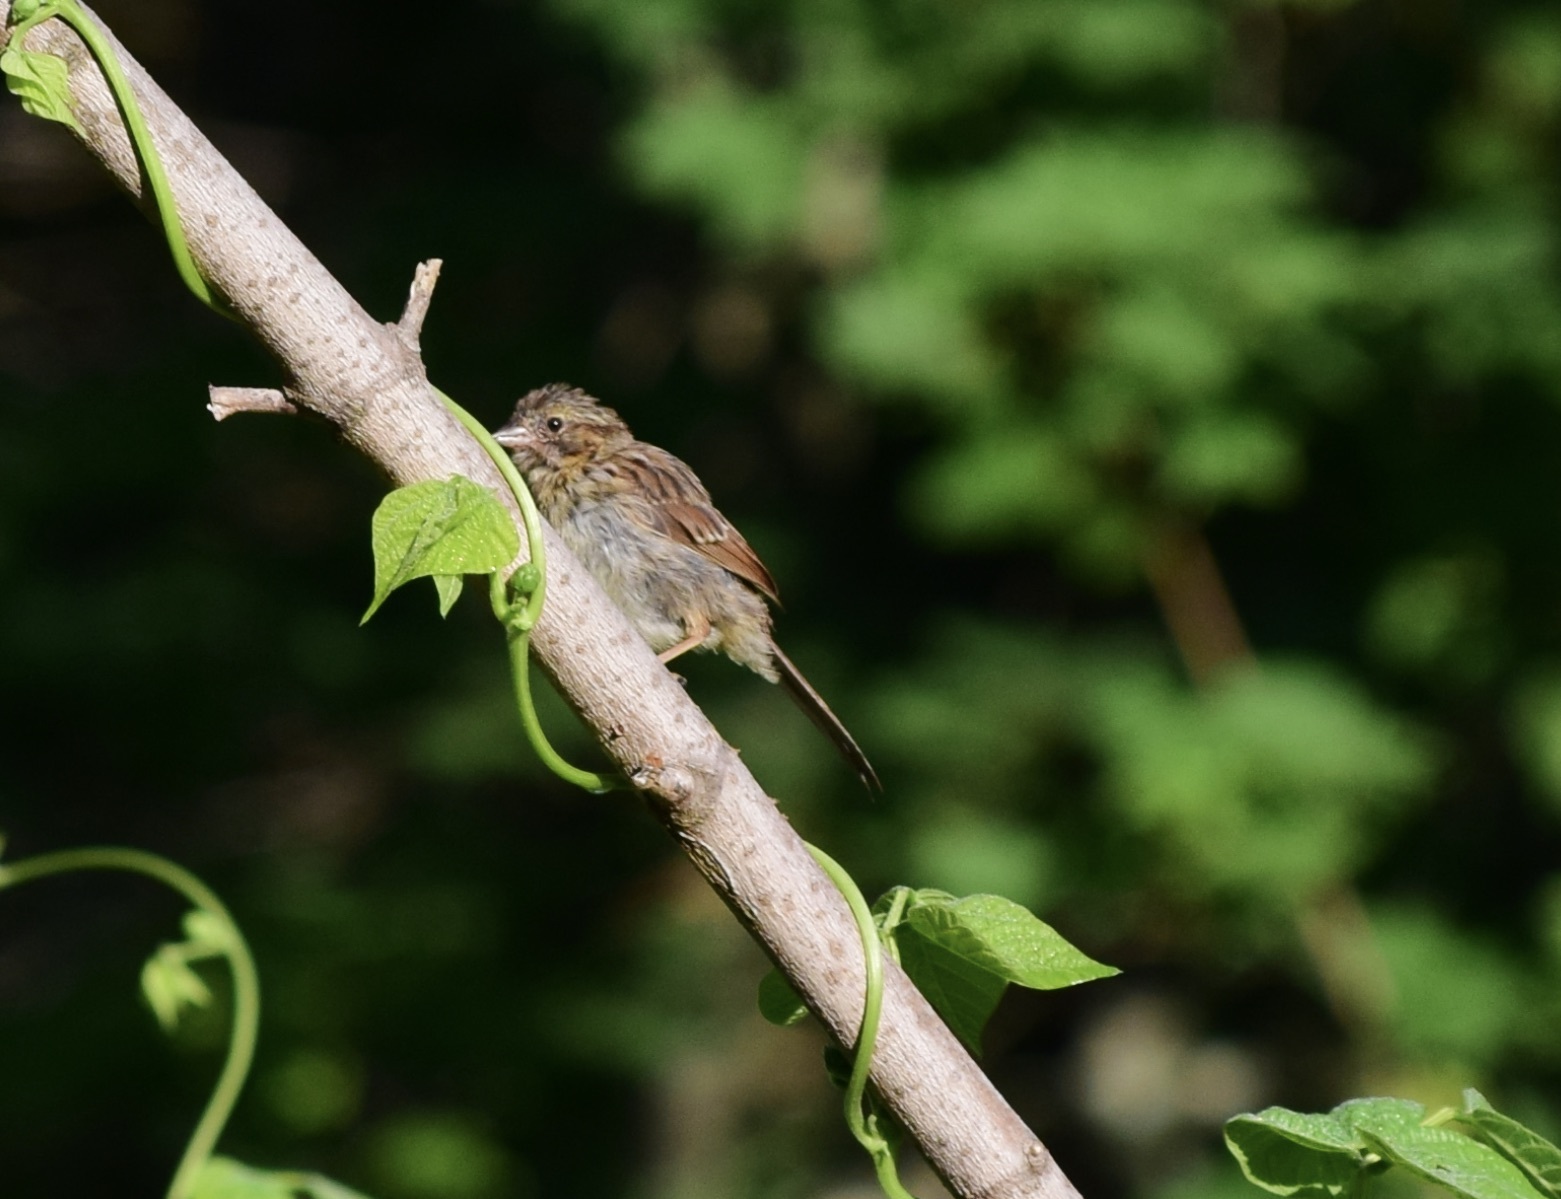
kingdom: Animalia
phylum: Chordata
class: Aves
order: Passeriformes
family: Passerellidae
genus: Melospiza
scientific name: Melospiza melodia
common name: Song sparrow
